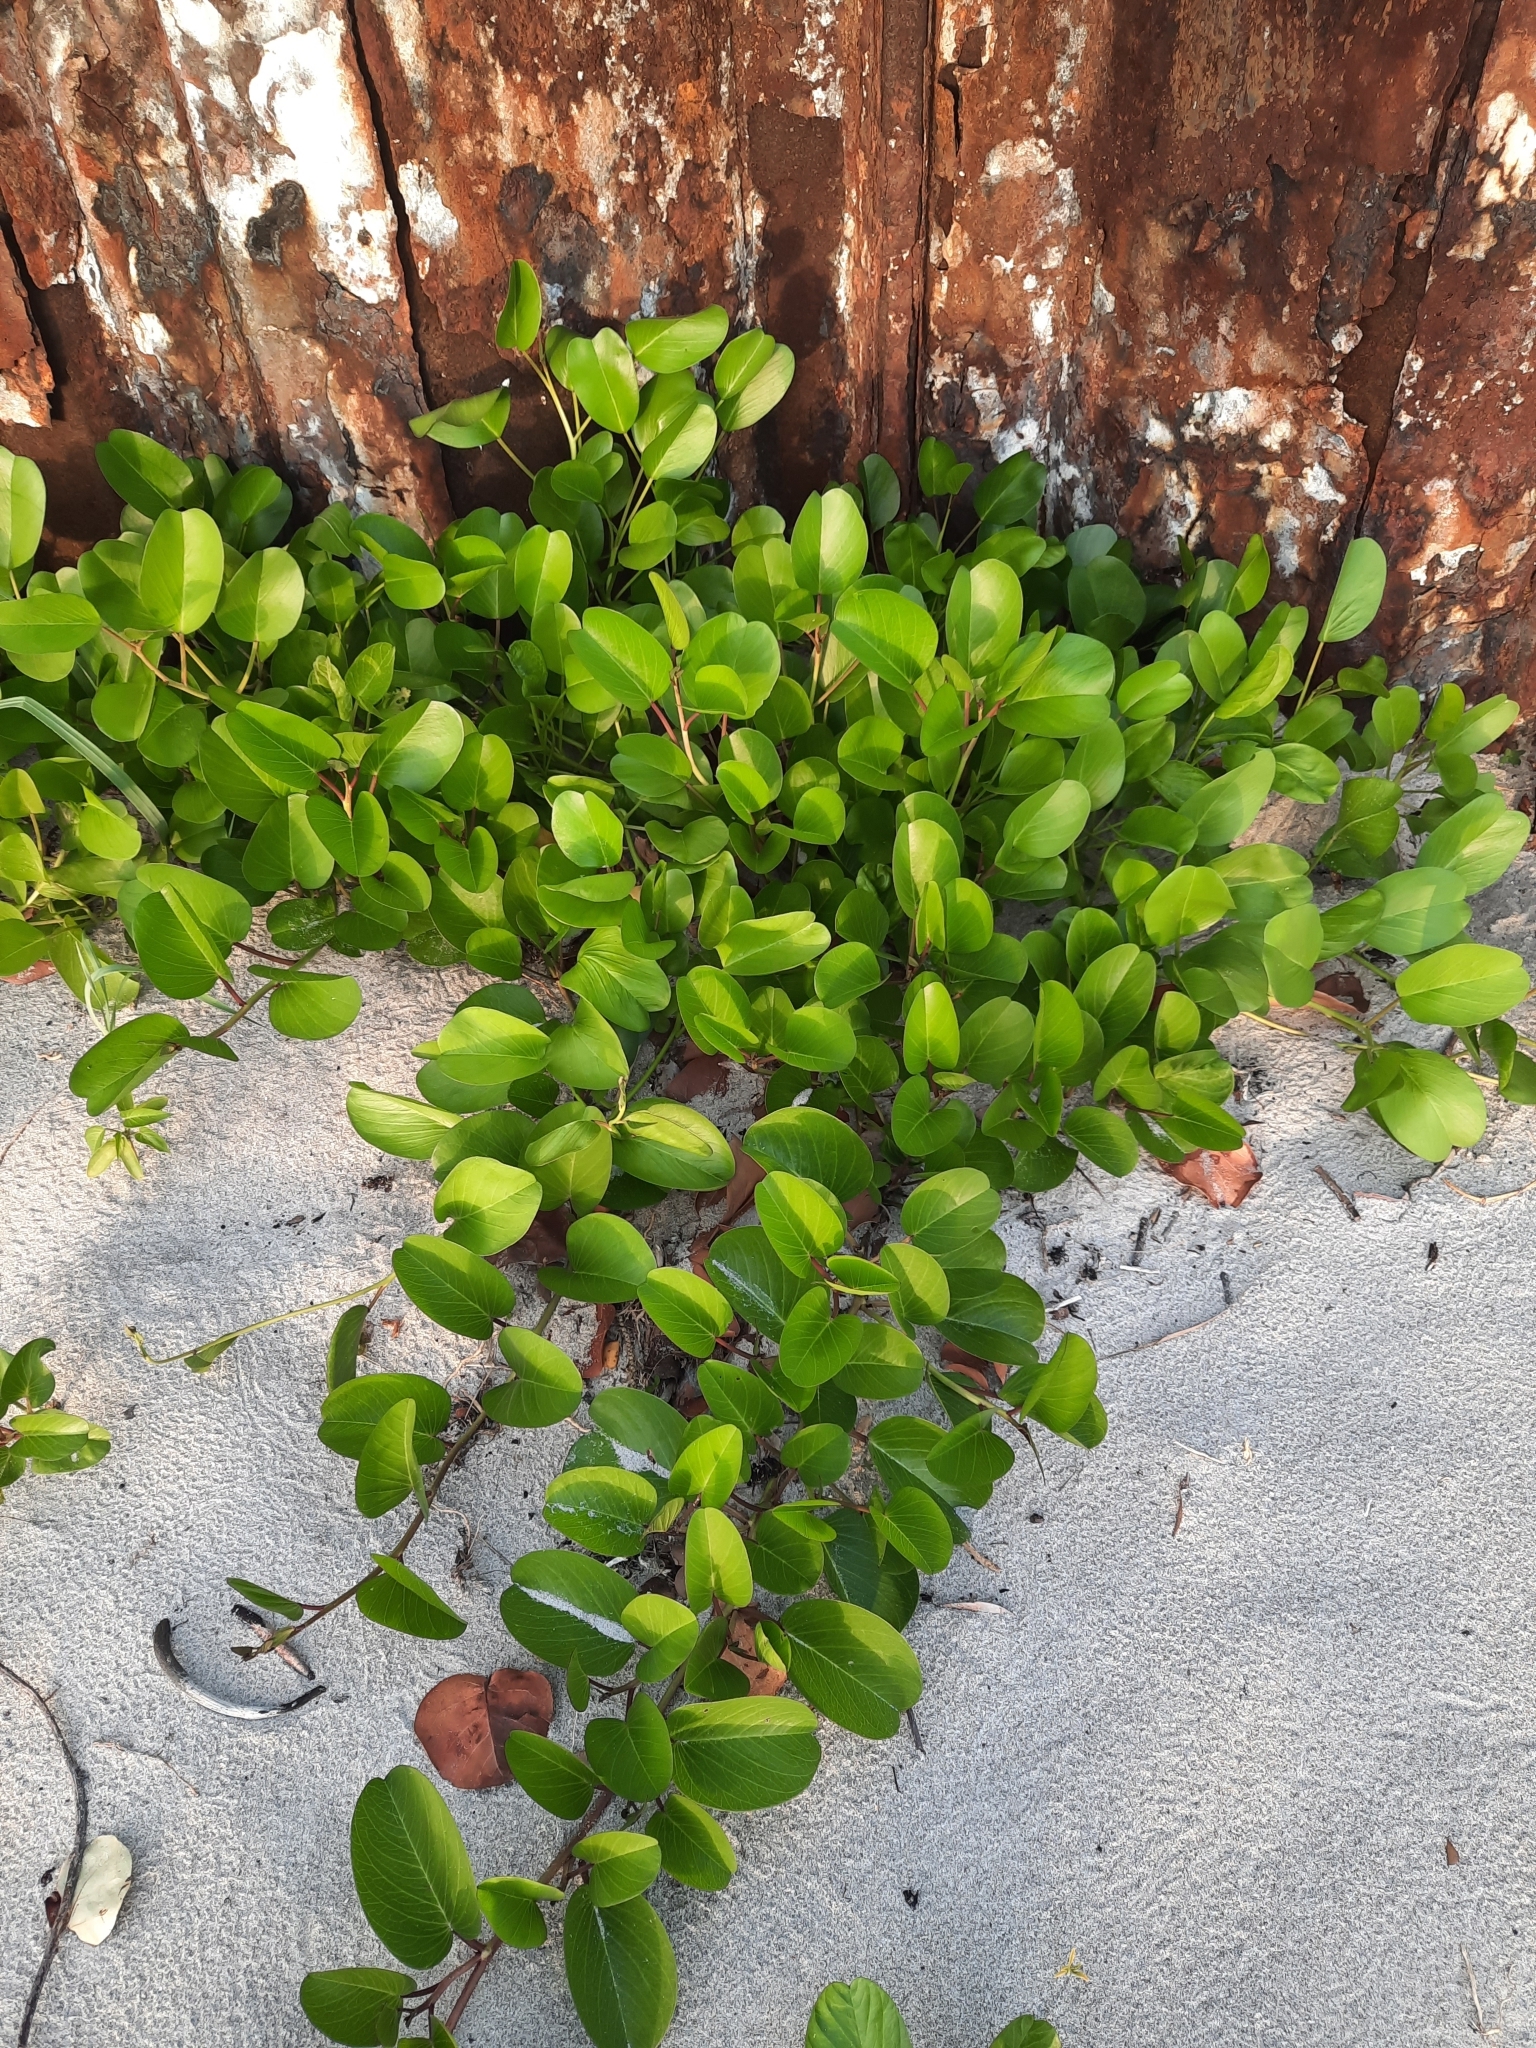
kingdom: Plantae
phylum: Tracheophyta
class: Magnoliopsida
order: Solanales
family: Convolvulaceae
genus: Ipomoea
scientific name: Ipomoea pes-caprae
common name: Beach morning glory
